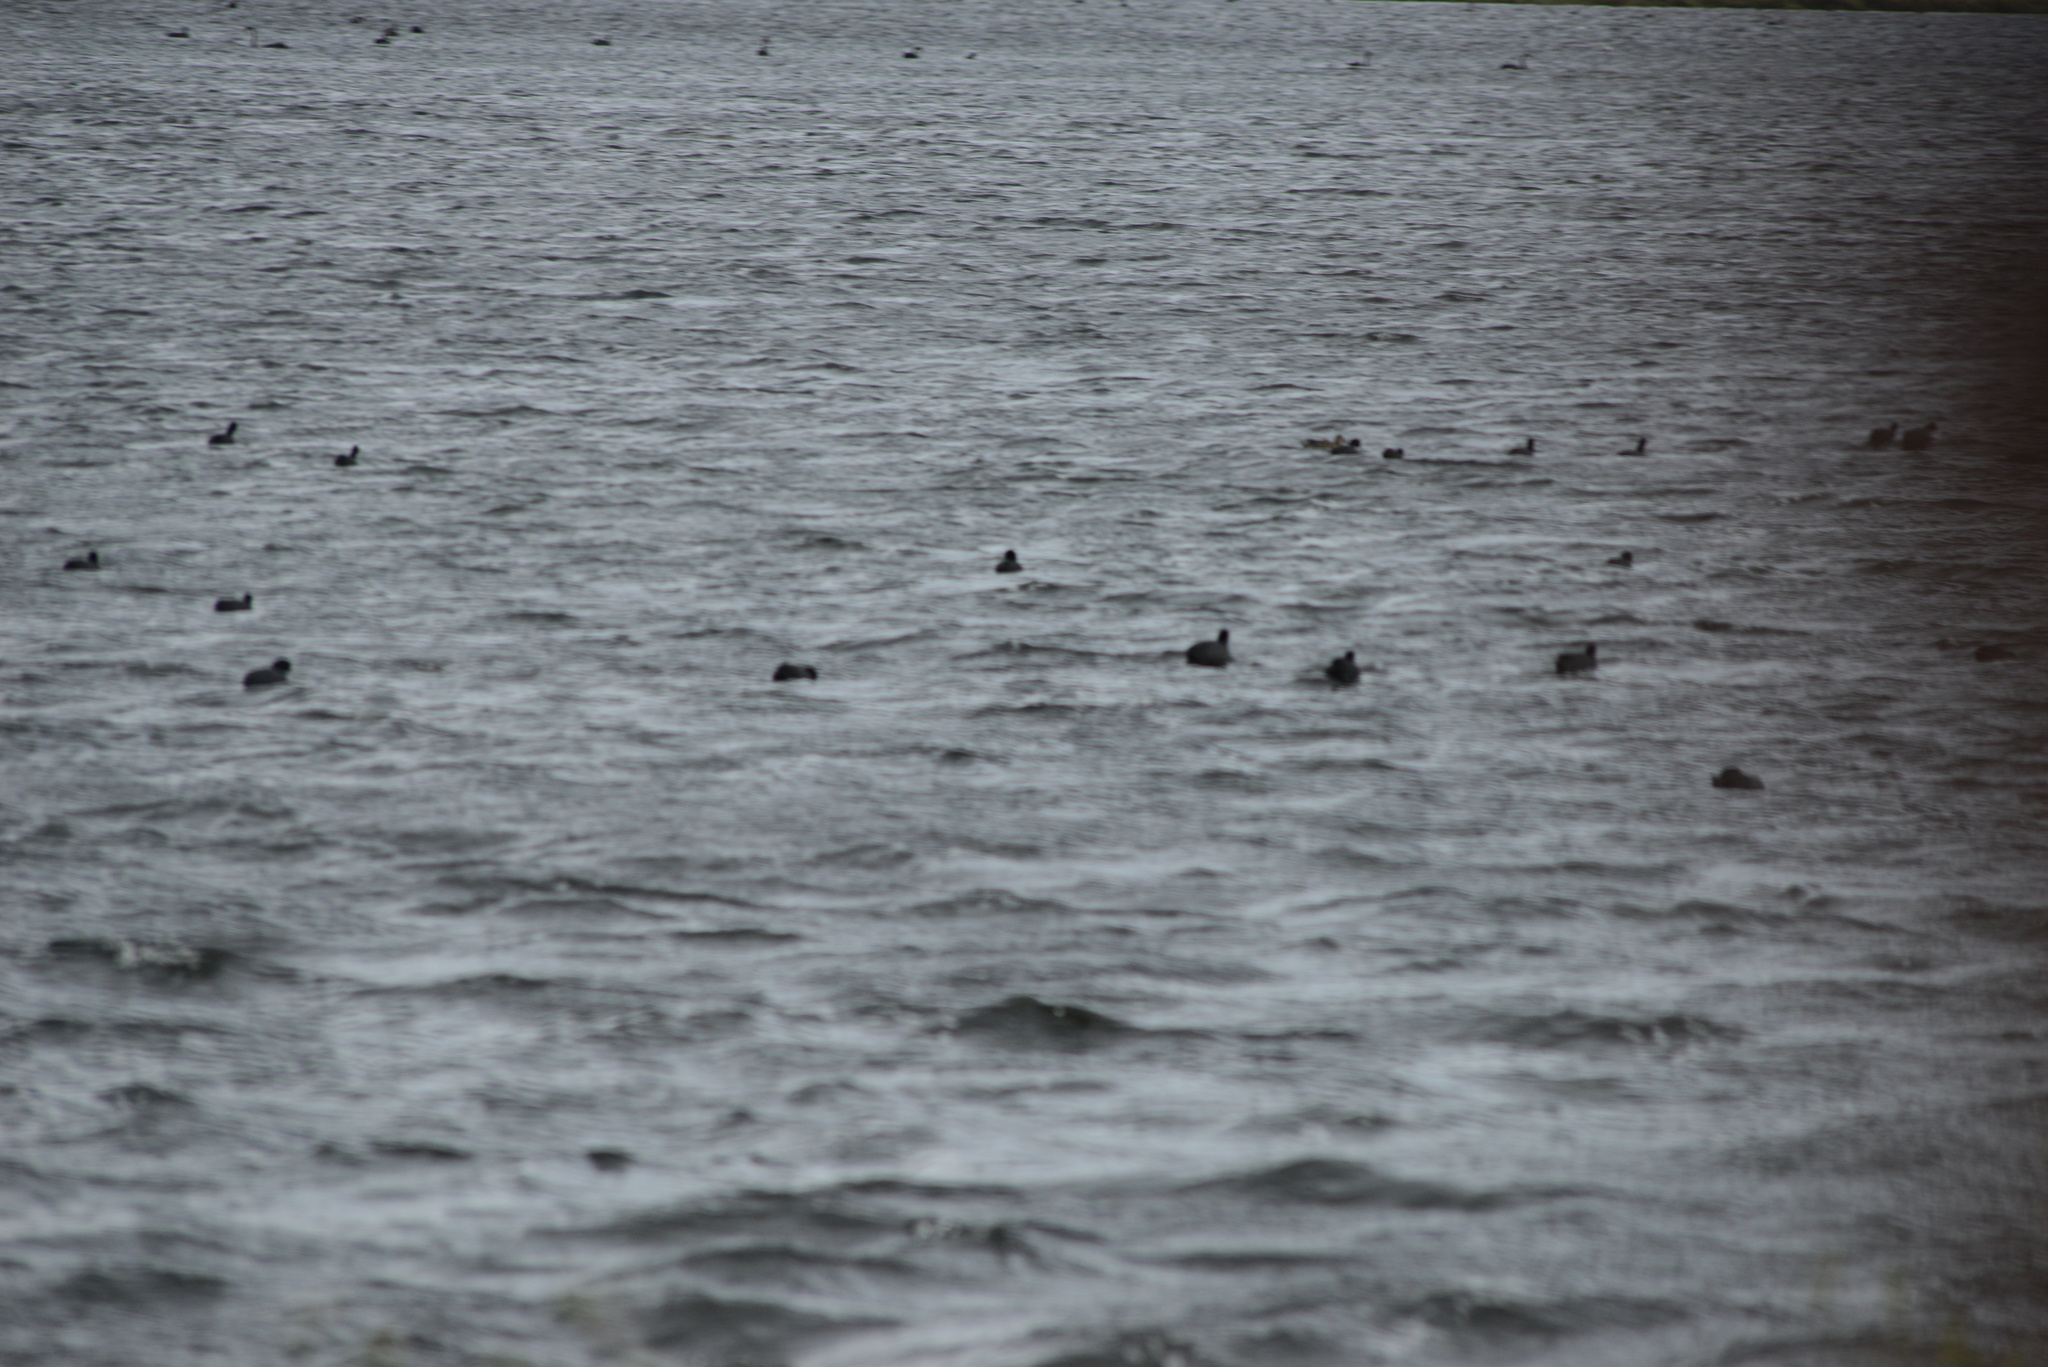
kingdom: Animalia
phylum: Chordata
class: Aves
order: Gruiformes
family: Rallidae
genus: Fulica
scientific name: Fulica atra
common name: Eurasian coot
